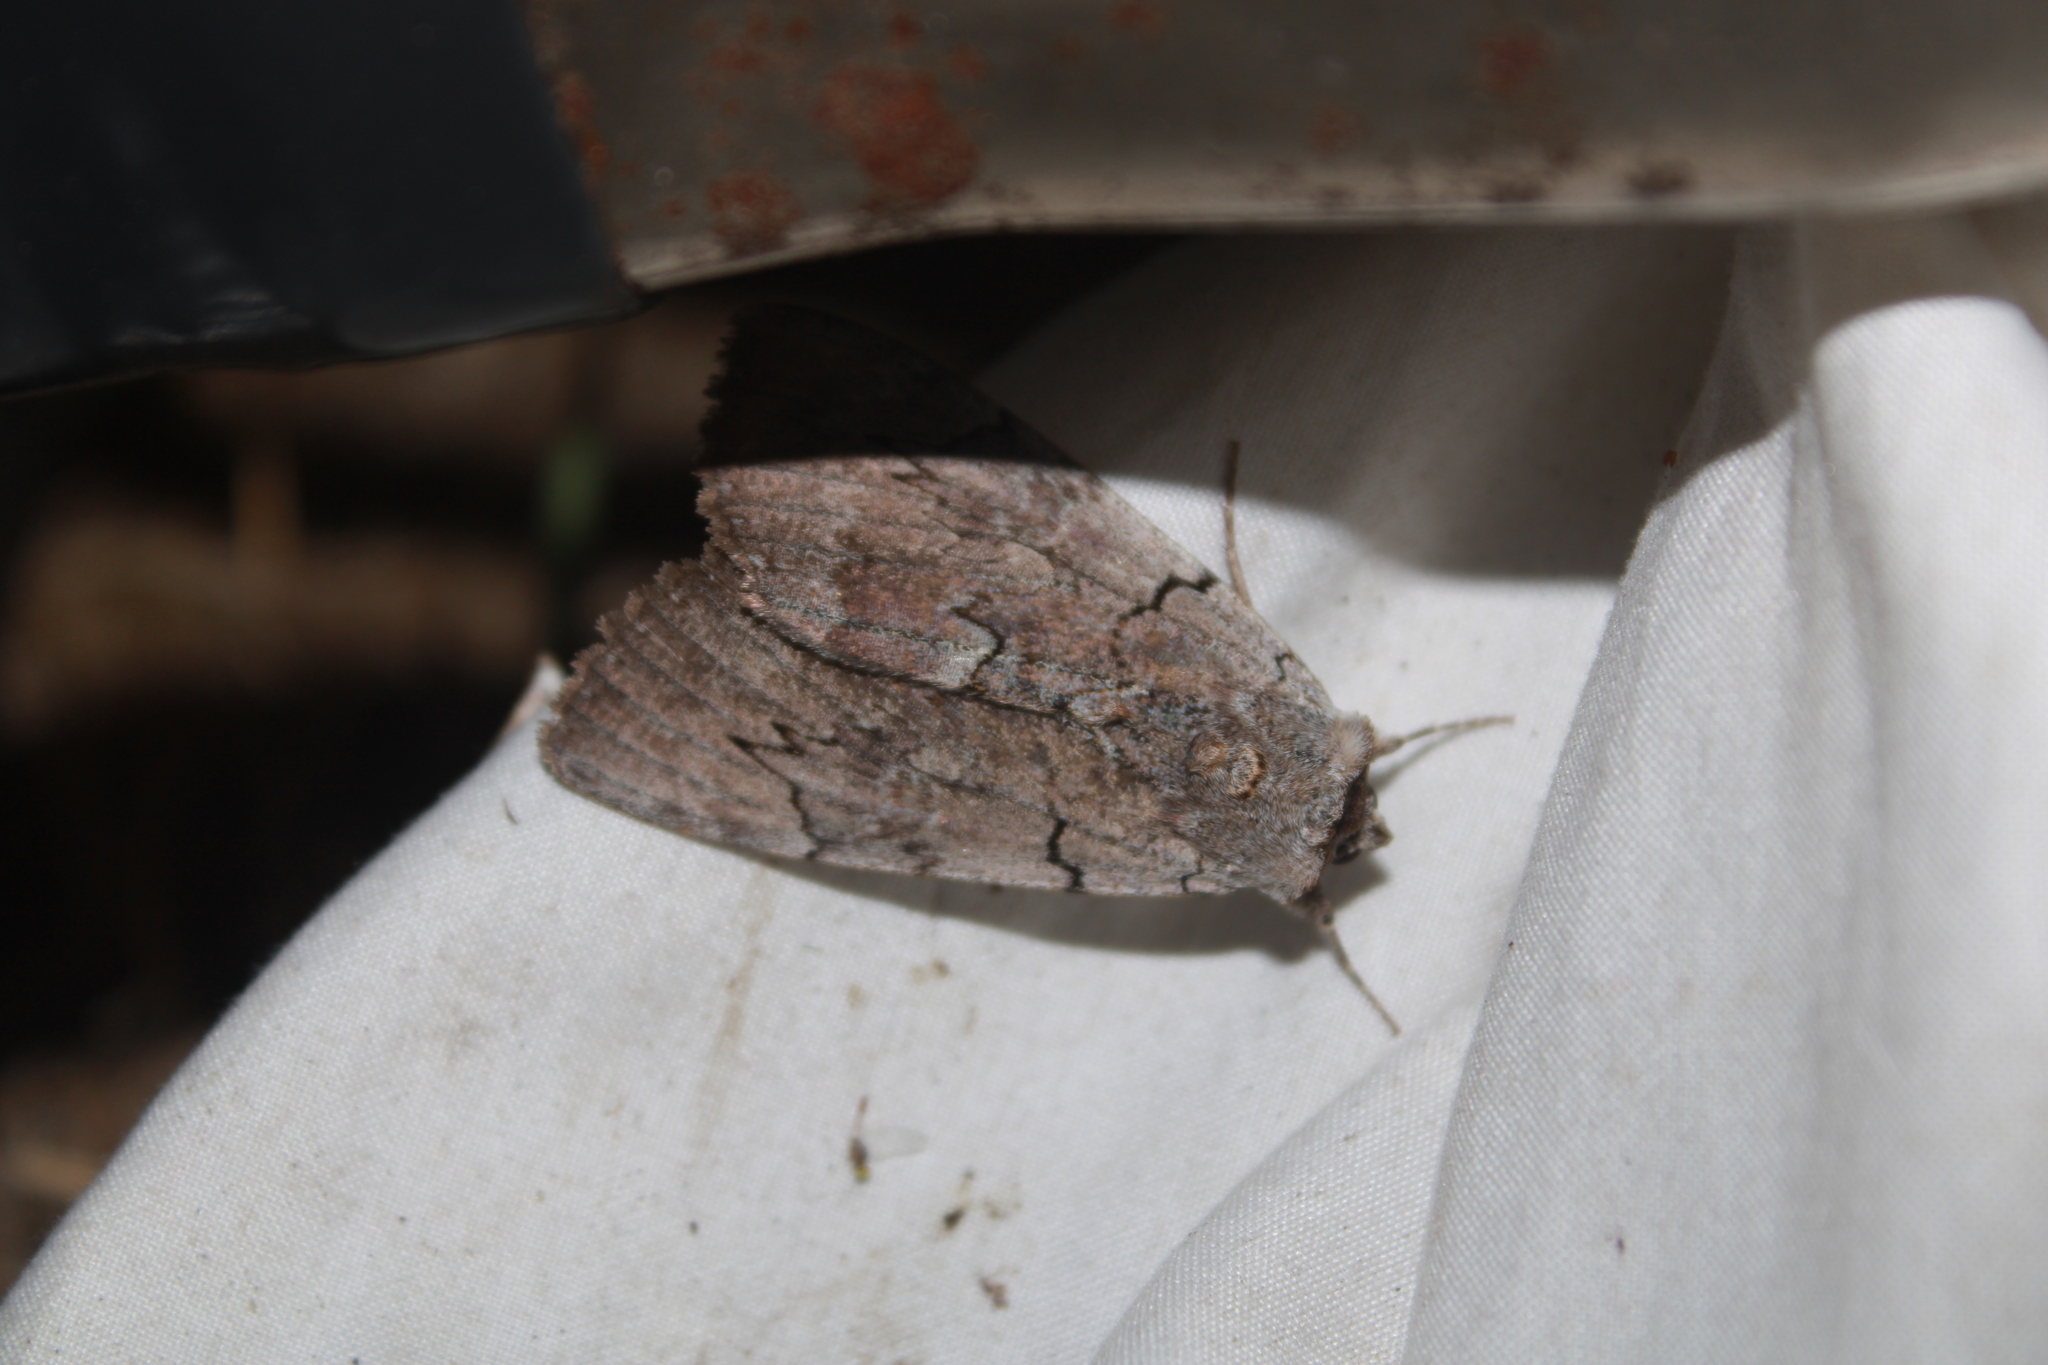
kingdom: Animalia
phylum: Arthropoda
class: Insecta
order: Lepidoptera
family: Erebidae
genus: Catocala
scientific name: Catocala concumbens
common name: Pink underwing
